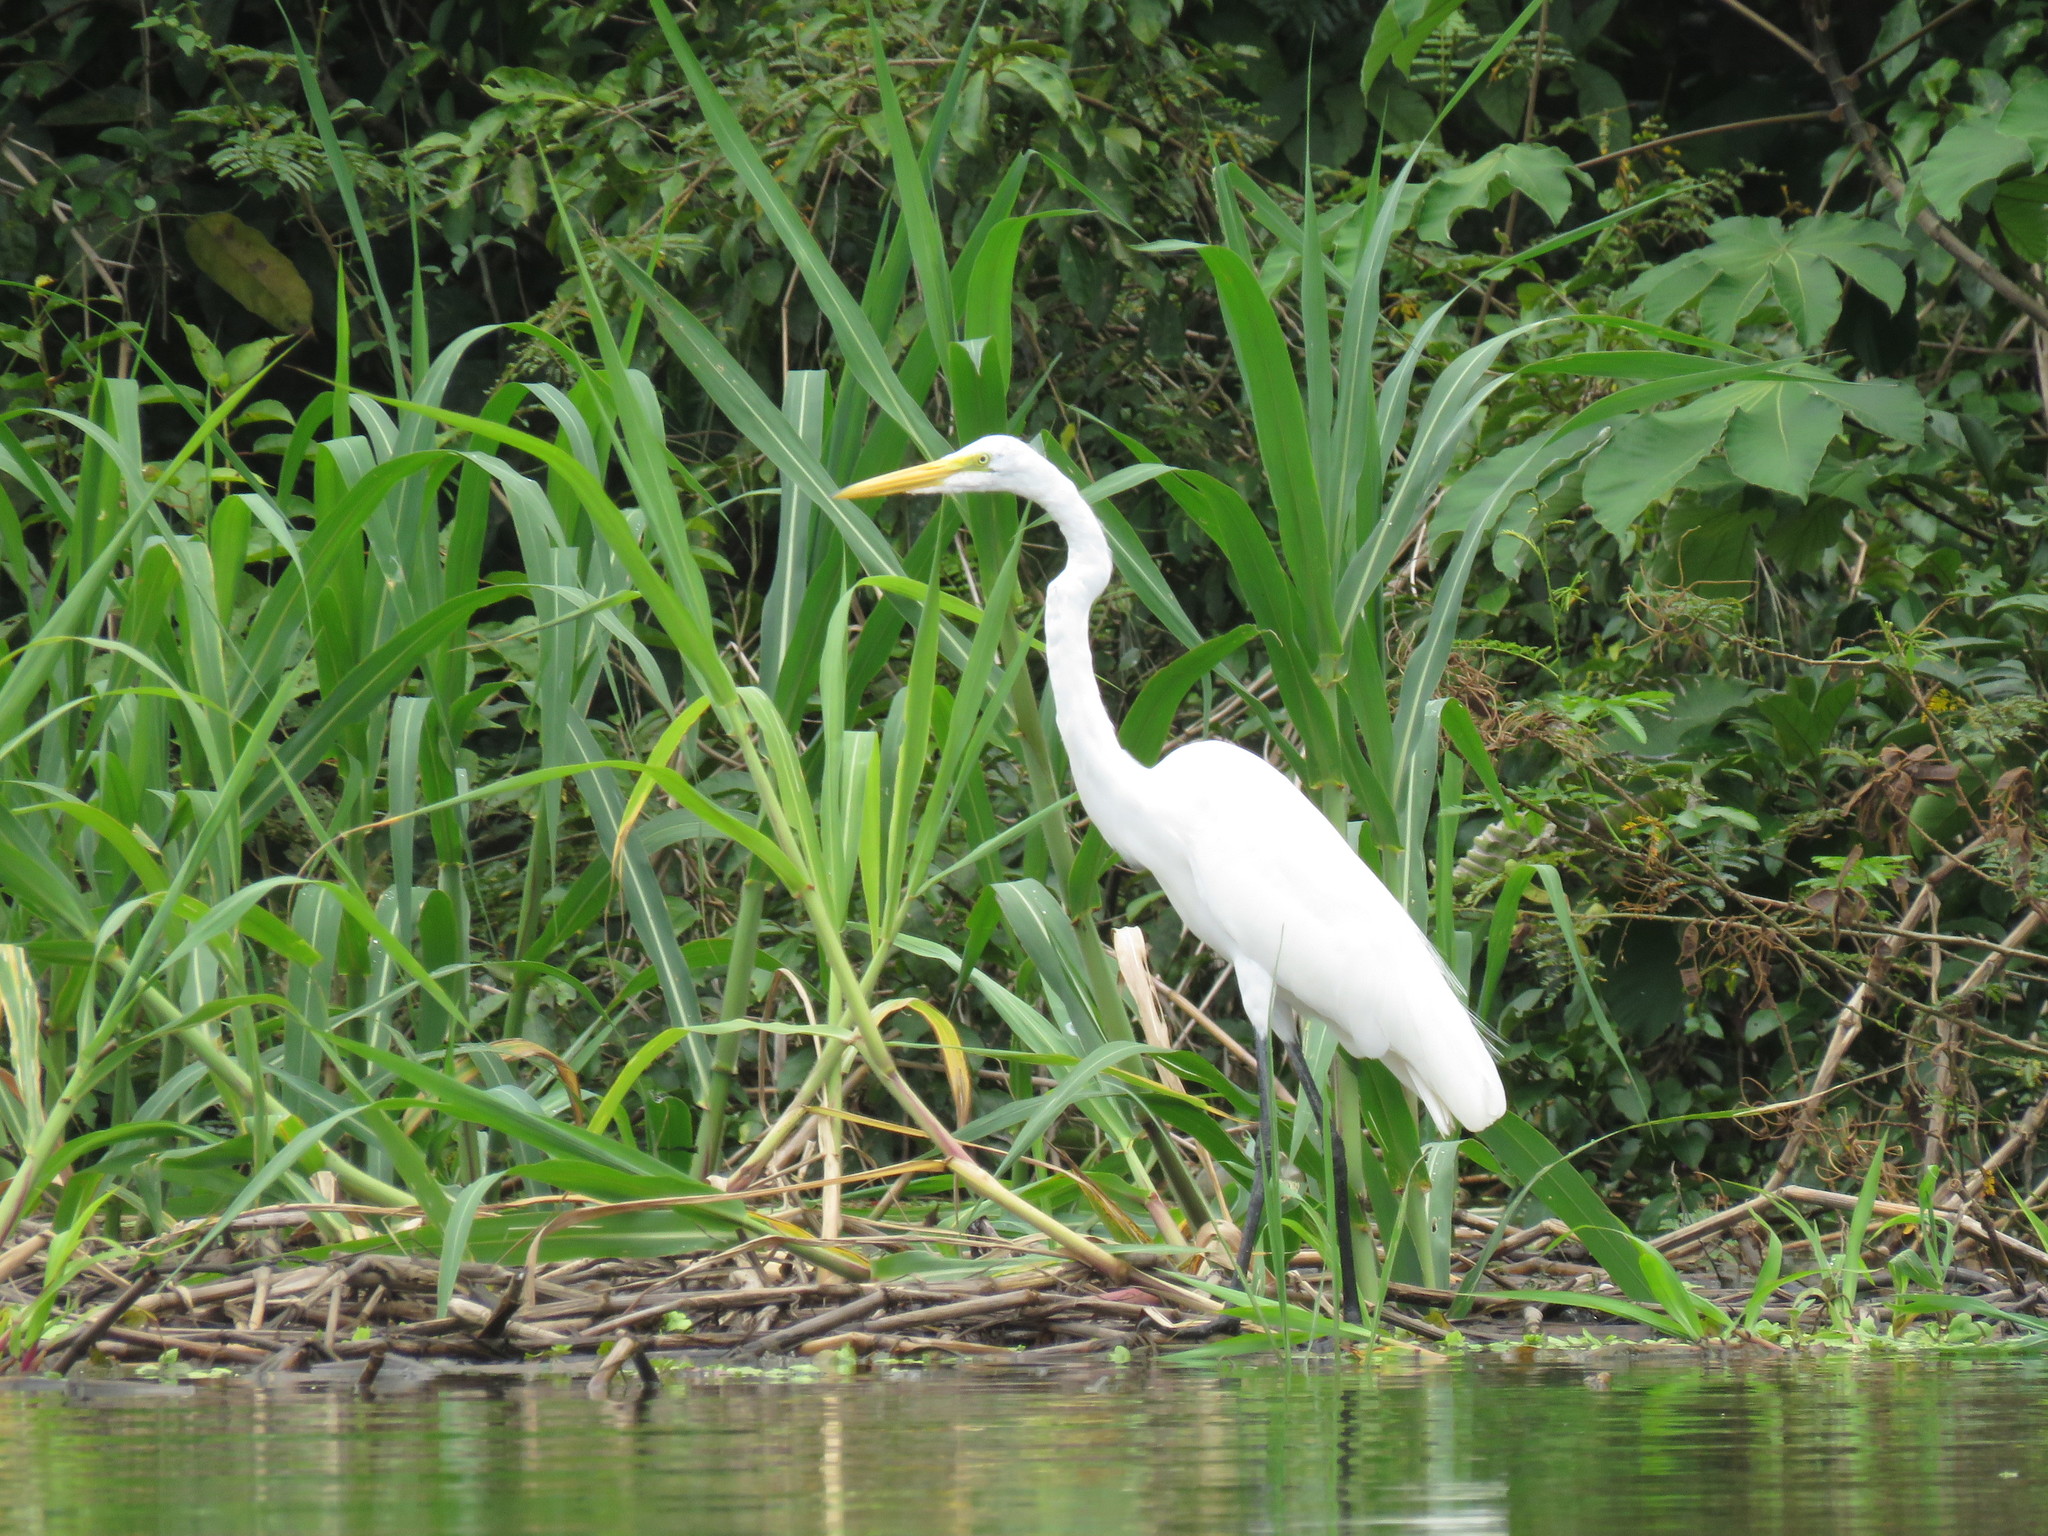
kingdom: Animalia
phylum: Chordata
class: Aves
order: Pelecaniformes
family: Ardeidae
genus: Ardea
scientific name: Ardea alba
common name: Great egret
